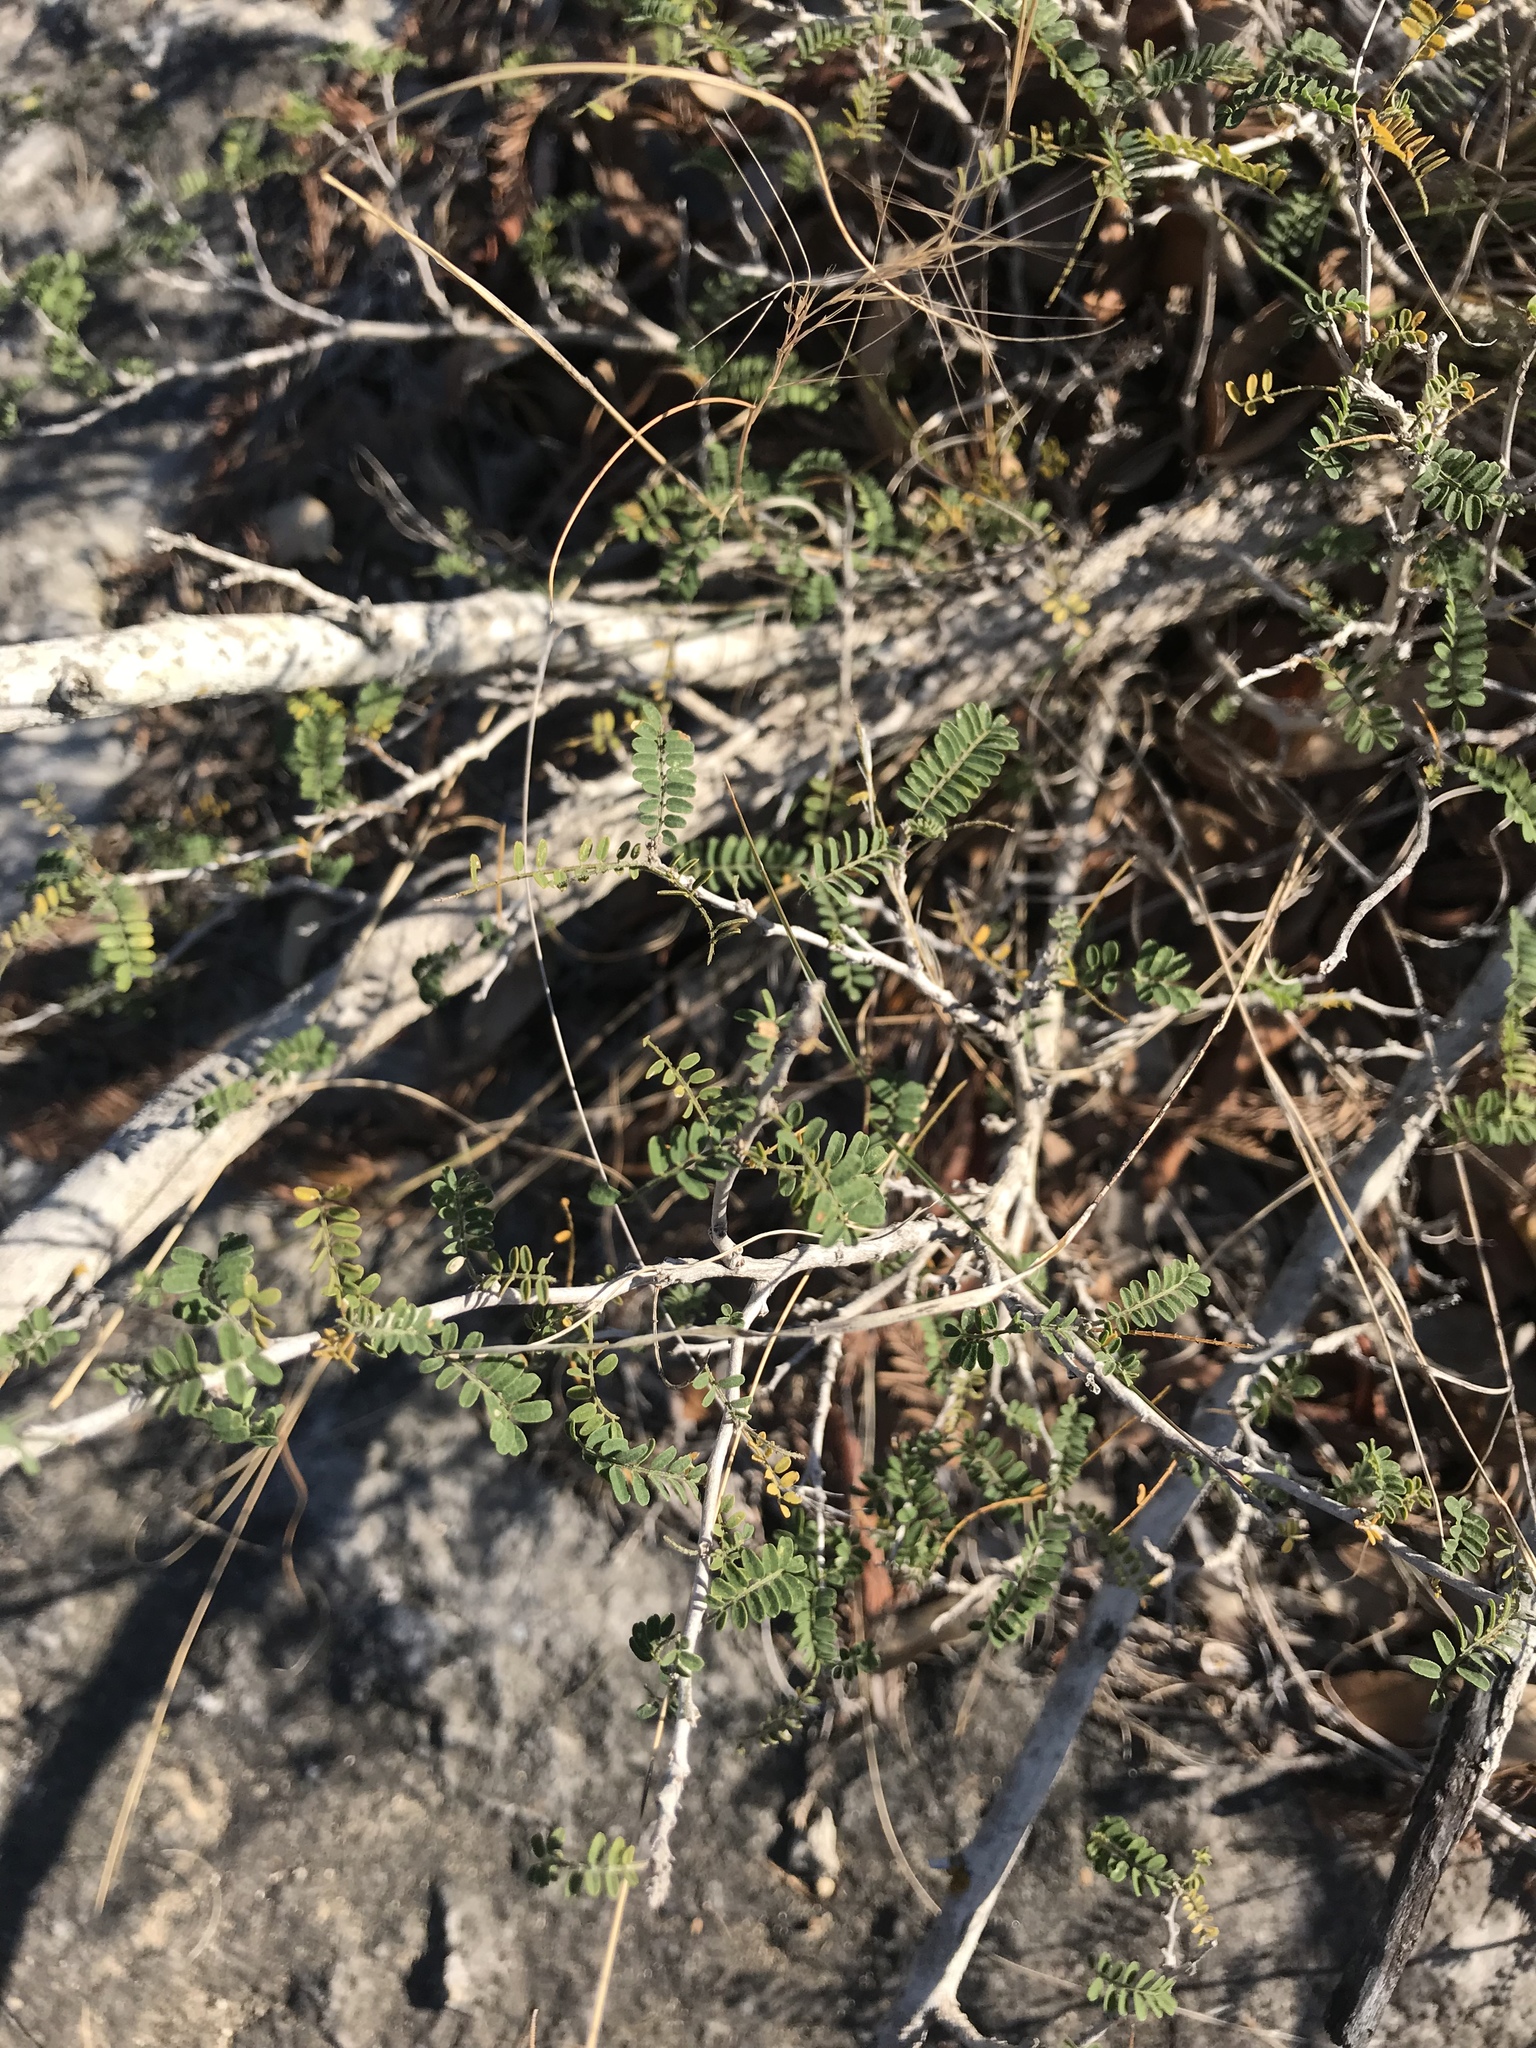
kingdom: Plantae
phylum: Tracheophyta
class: Magnoliopsida
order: Fabales
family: Fabaceae
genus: Eysenhardtia
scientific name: Eysenhardtia texana
